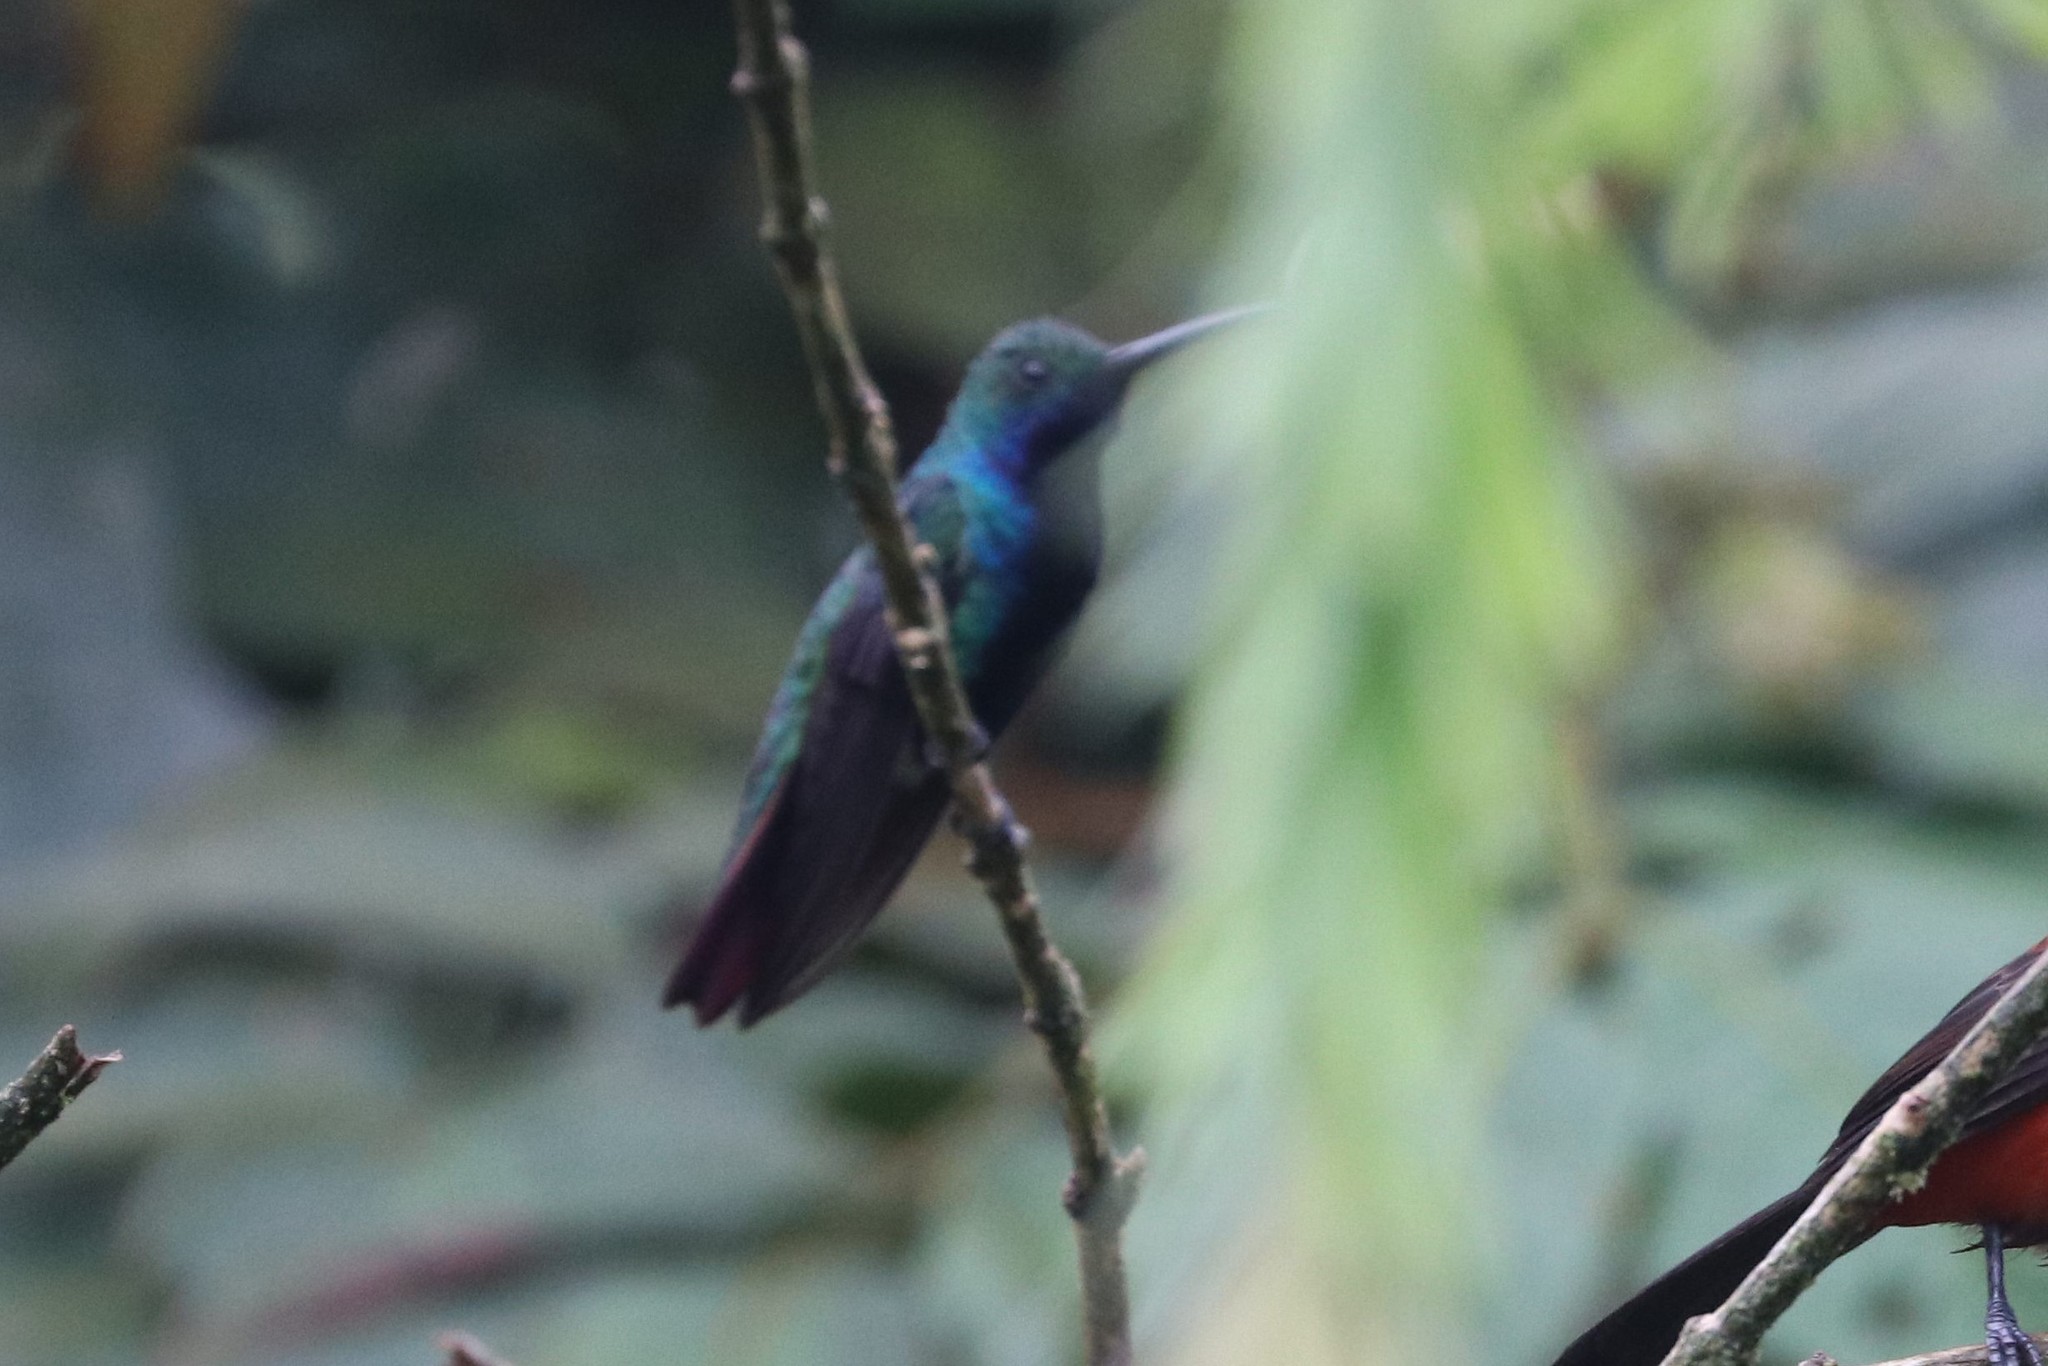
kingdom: Animalia
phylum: Chordata
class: Aves
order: Apodiformes
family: Trochilidae
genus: Anthracothorax
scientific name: Anthracothorax nigricollis
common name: Black-throated mango
